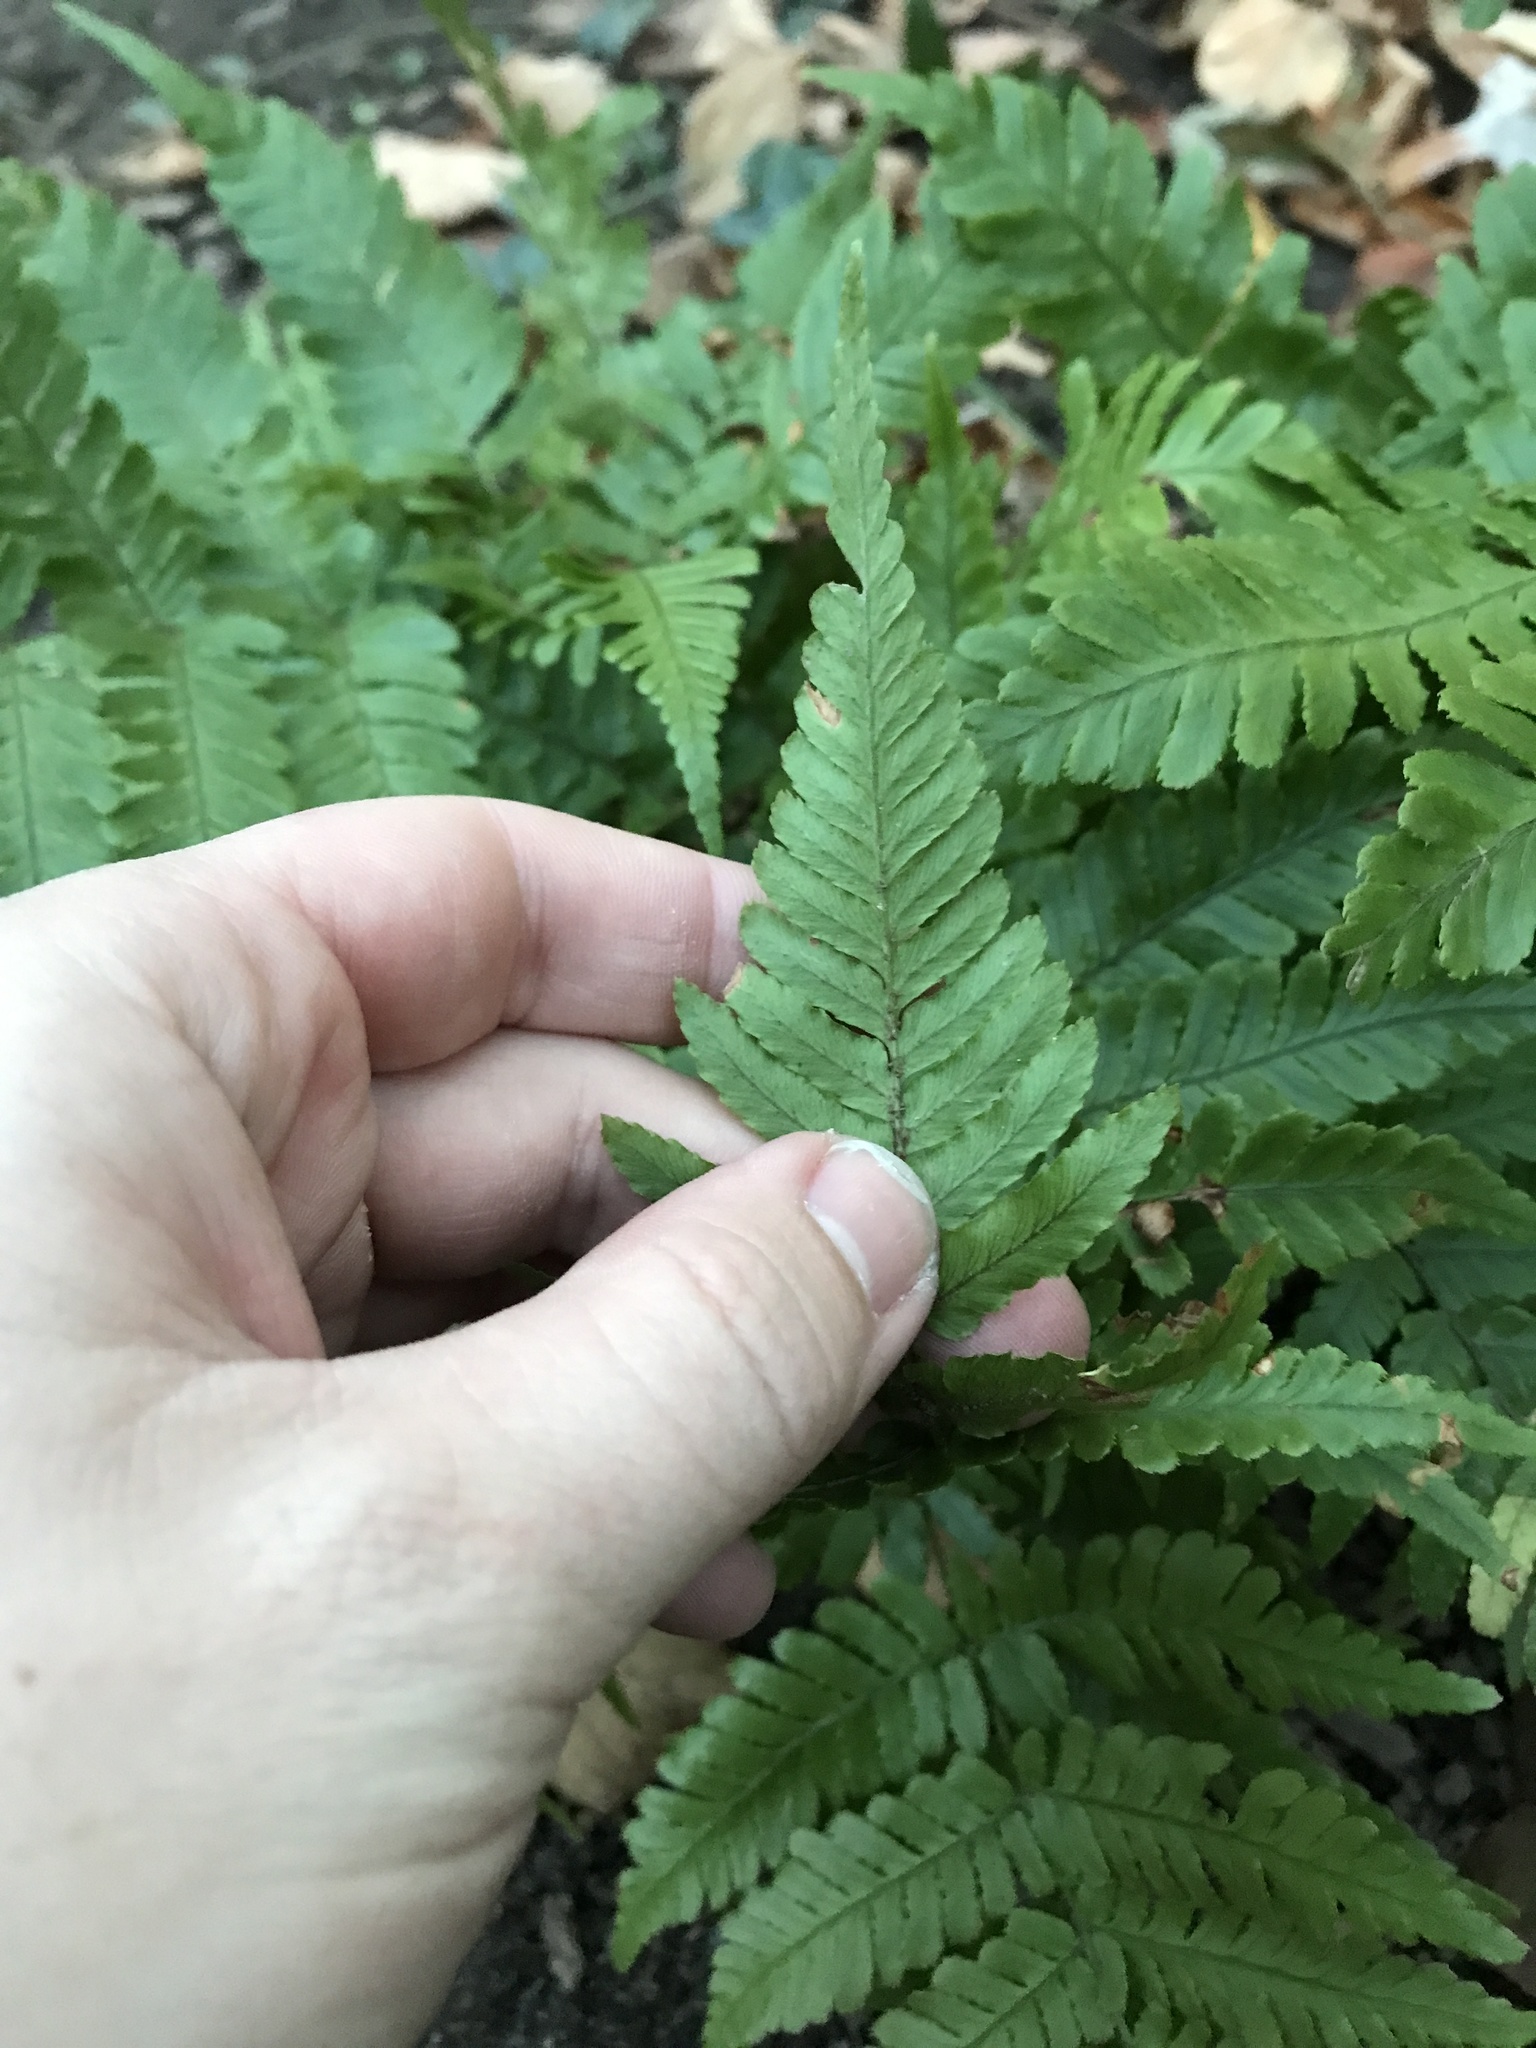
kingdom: Plantae
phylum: Tracheophyta
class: Polypodiopsida
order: Polypodiales
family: Dryopteridaceae
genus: Dryopteris
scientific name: Dryopteris erythrosora
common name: Autumn fern
